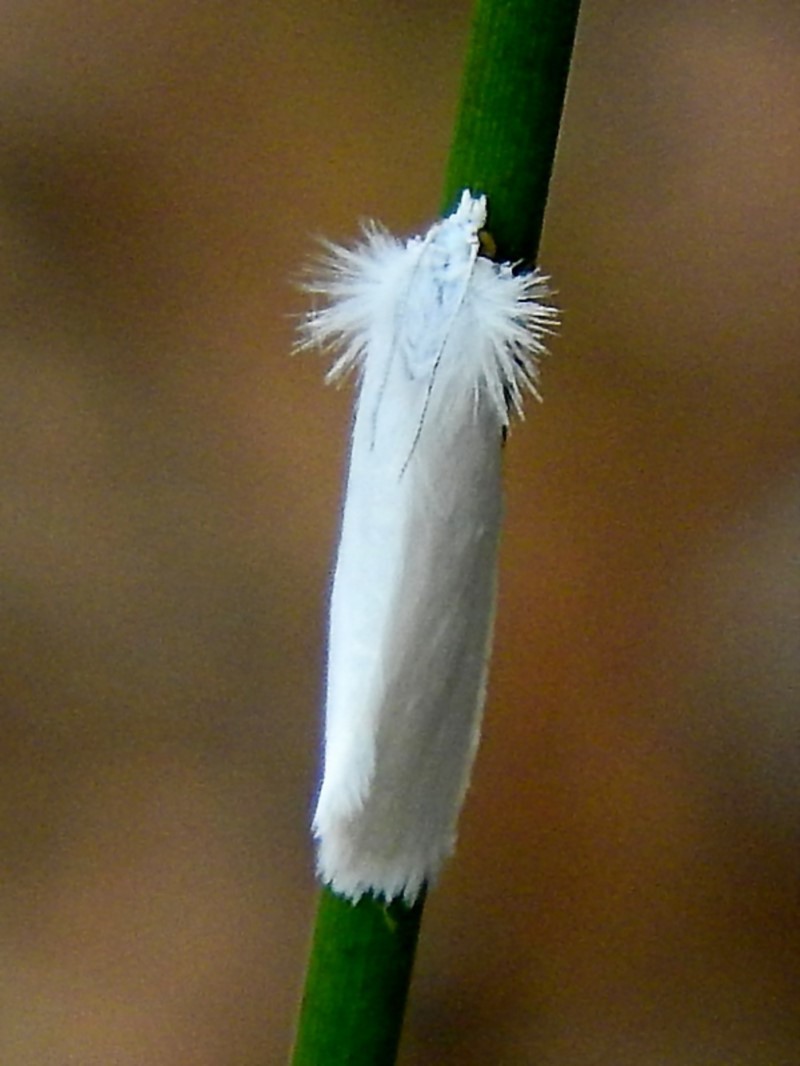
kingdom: Animalia
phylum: Arthropoda
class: Insecta
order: Lepidoptera
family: Crambidae
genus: Tipanaea
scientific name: Tipanaea patulella
